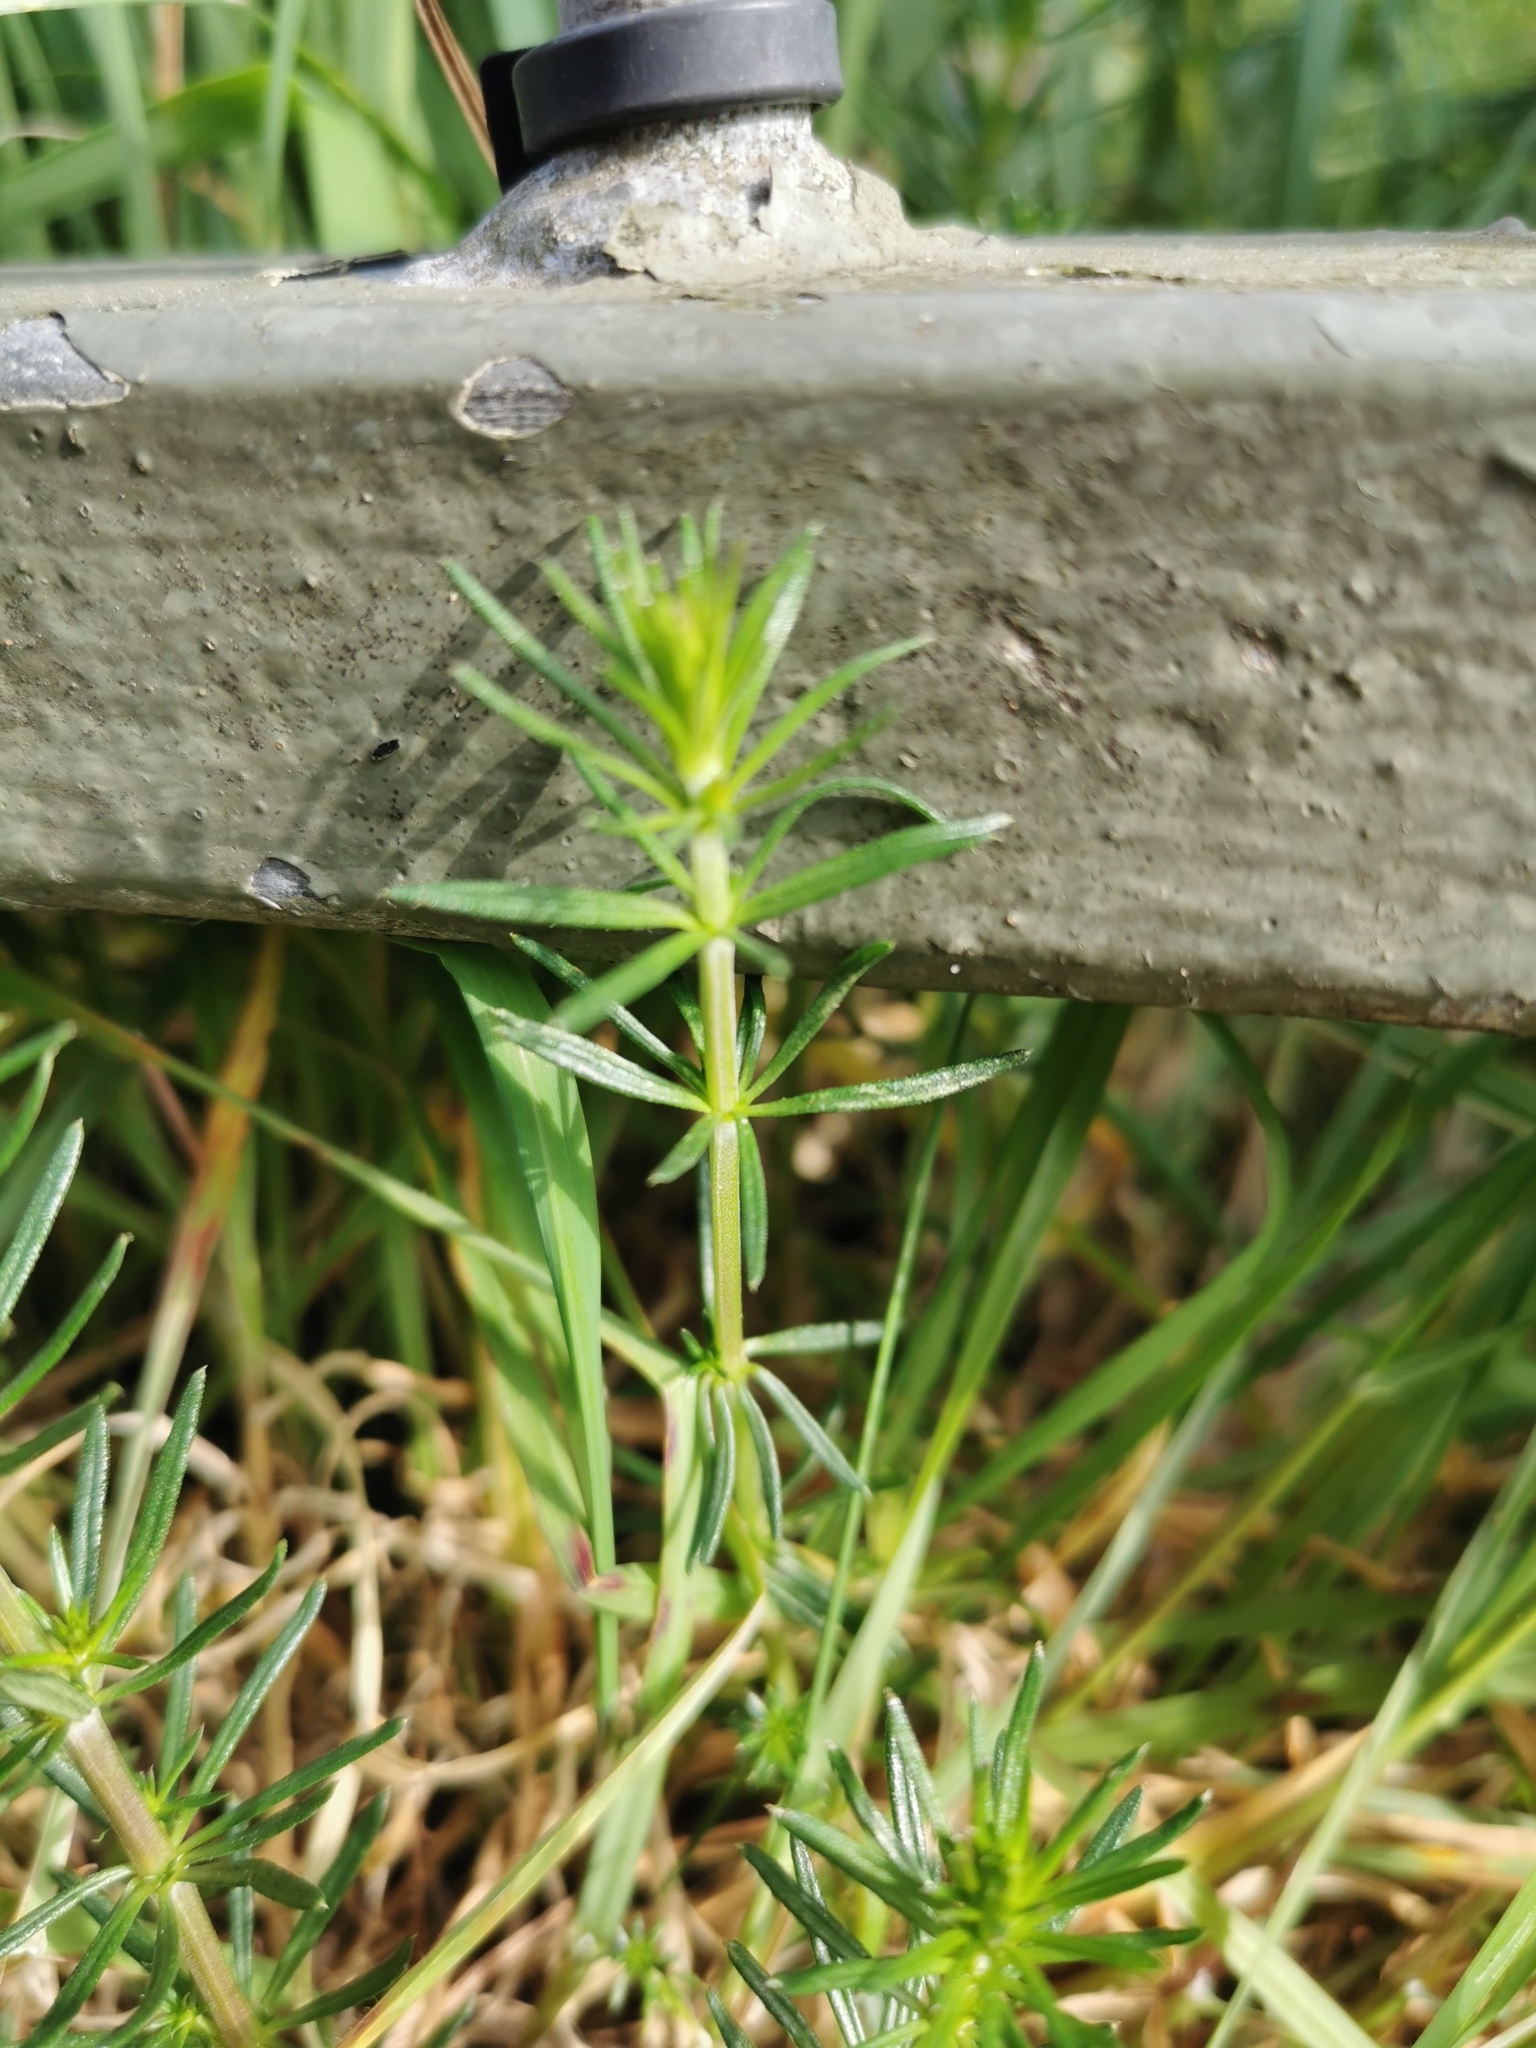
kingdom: Plantae
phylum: Tracheophyta
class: Magnoliopsida
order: Gentianales
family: Rubiaceae
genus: Galium
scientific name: Galium verum
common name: Lady's bedstraw
